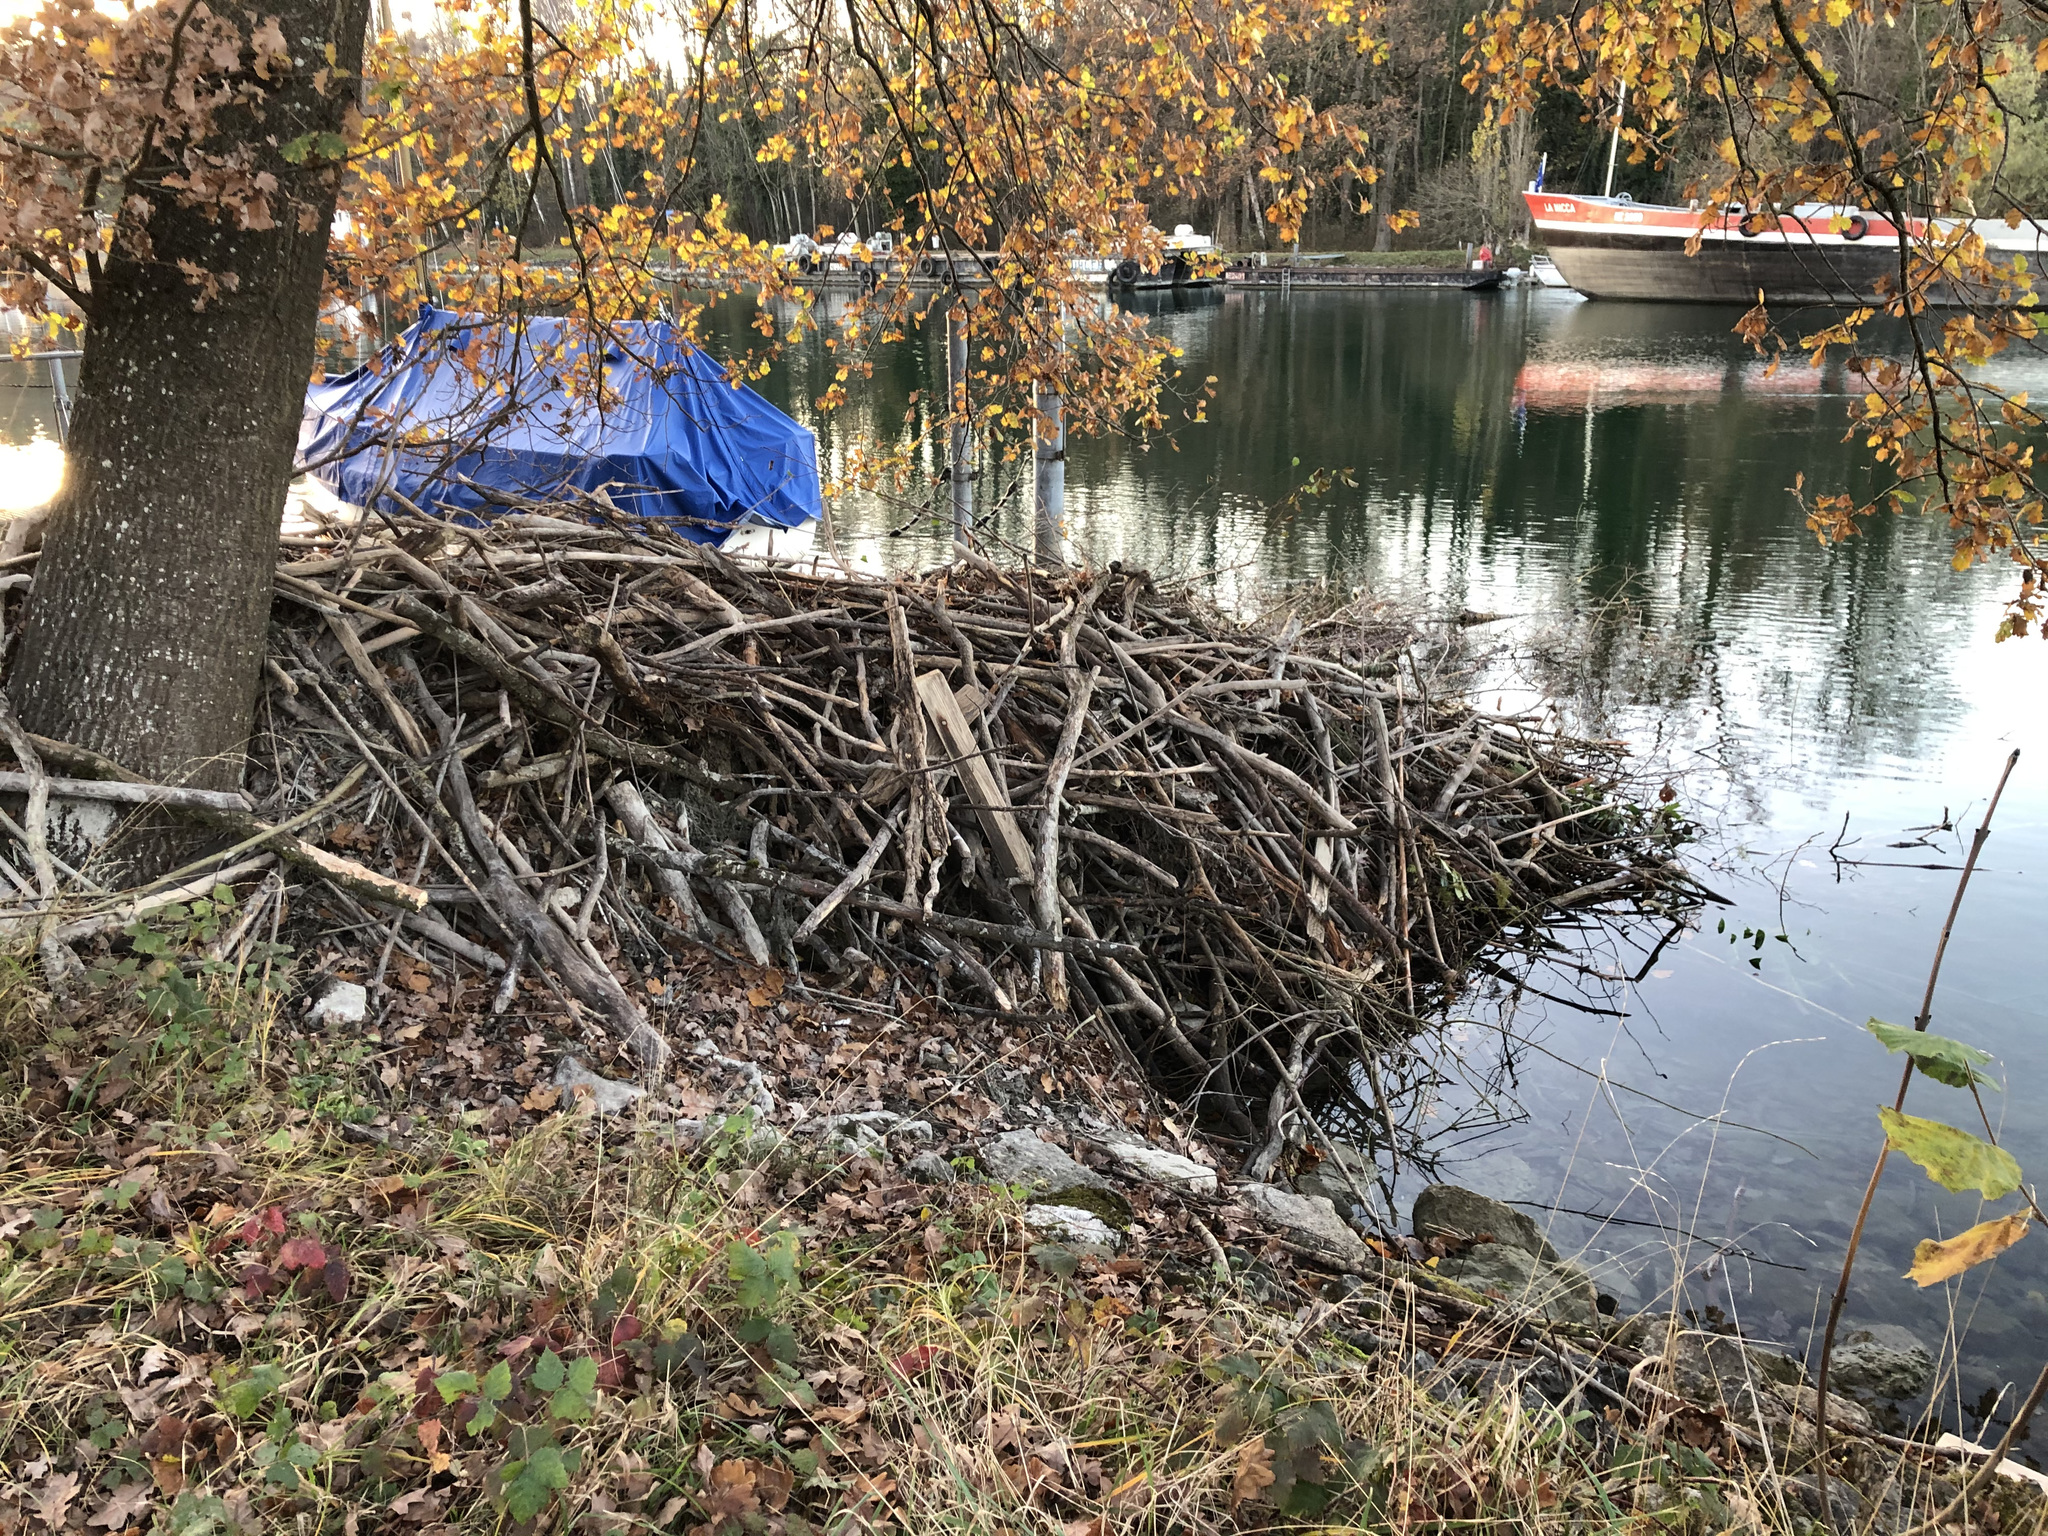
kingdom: Animalia
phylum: Chordata
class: Mammalia
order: Rodentia
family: Castoridae
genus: Castor
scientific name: Castor fiber
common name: Eurasian beaver
